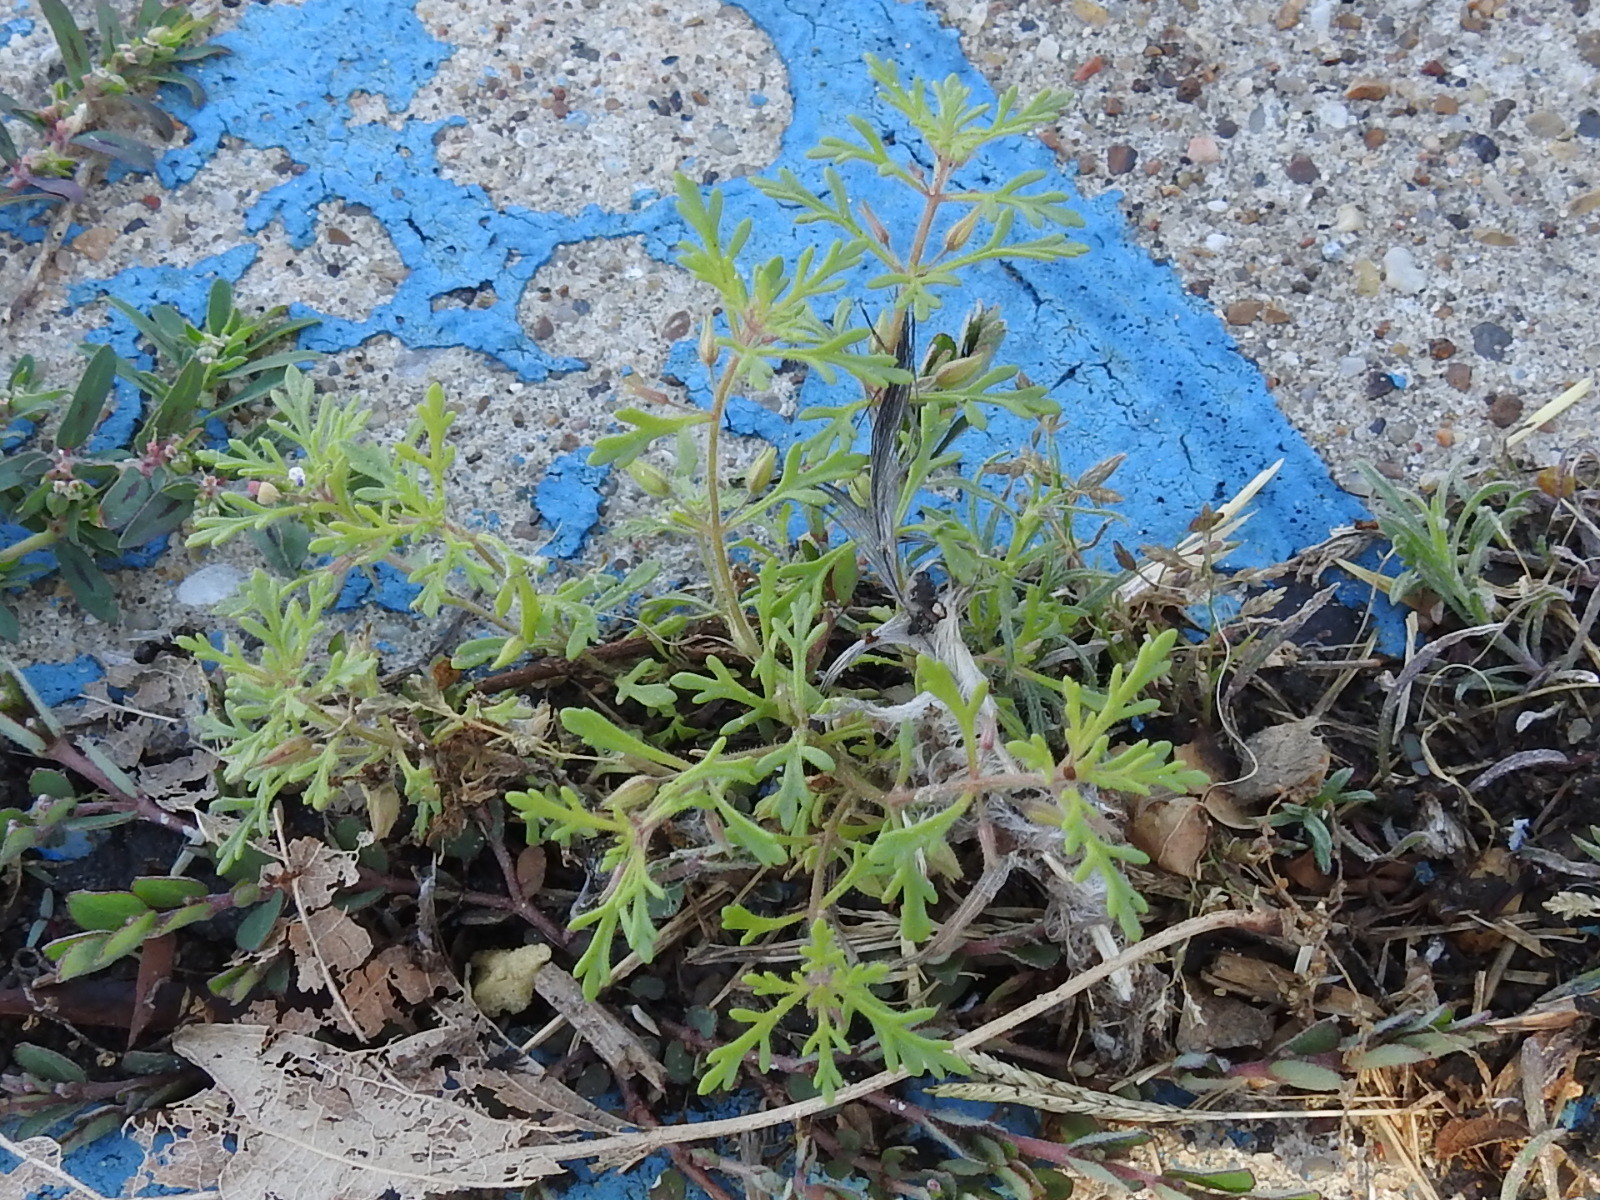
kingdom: Plantae
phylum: Tracheophyta
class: Magnoliopsida
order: Lamiales
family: Plantaginaceae
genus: Leucospora
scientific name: Leucospora multifida
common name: Narrow-leaf paleseed
